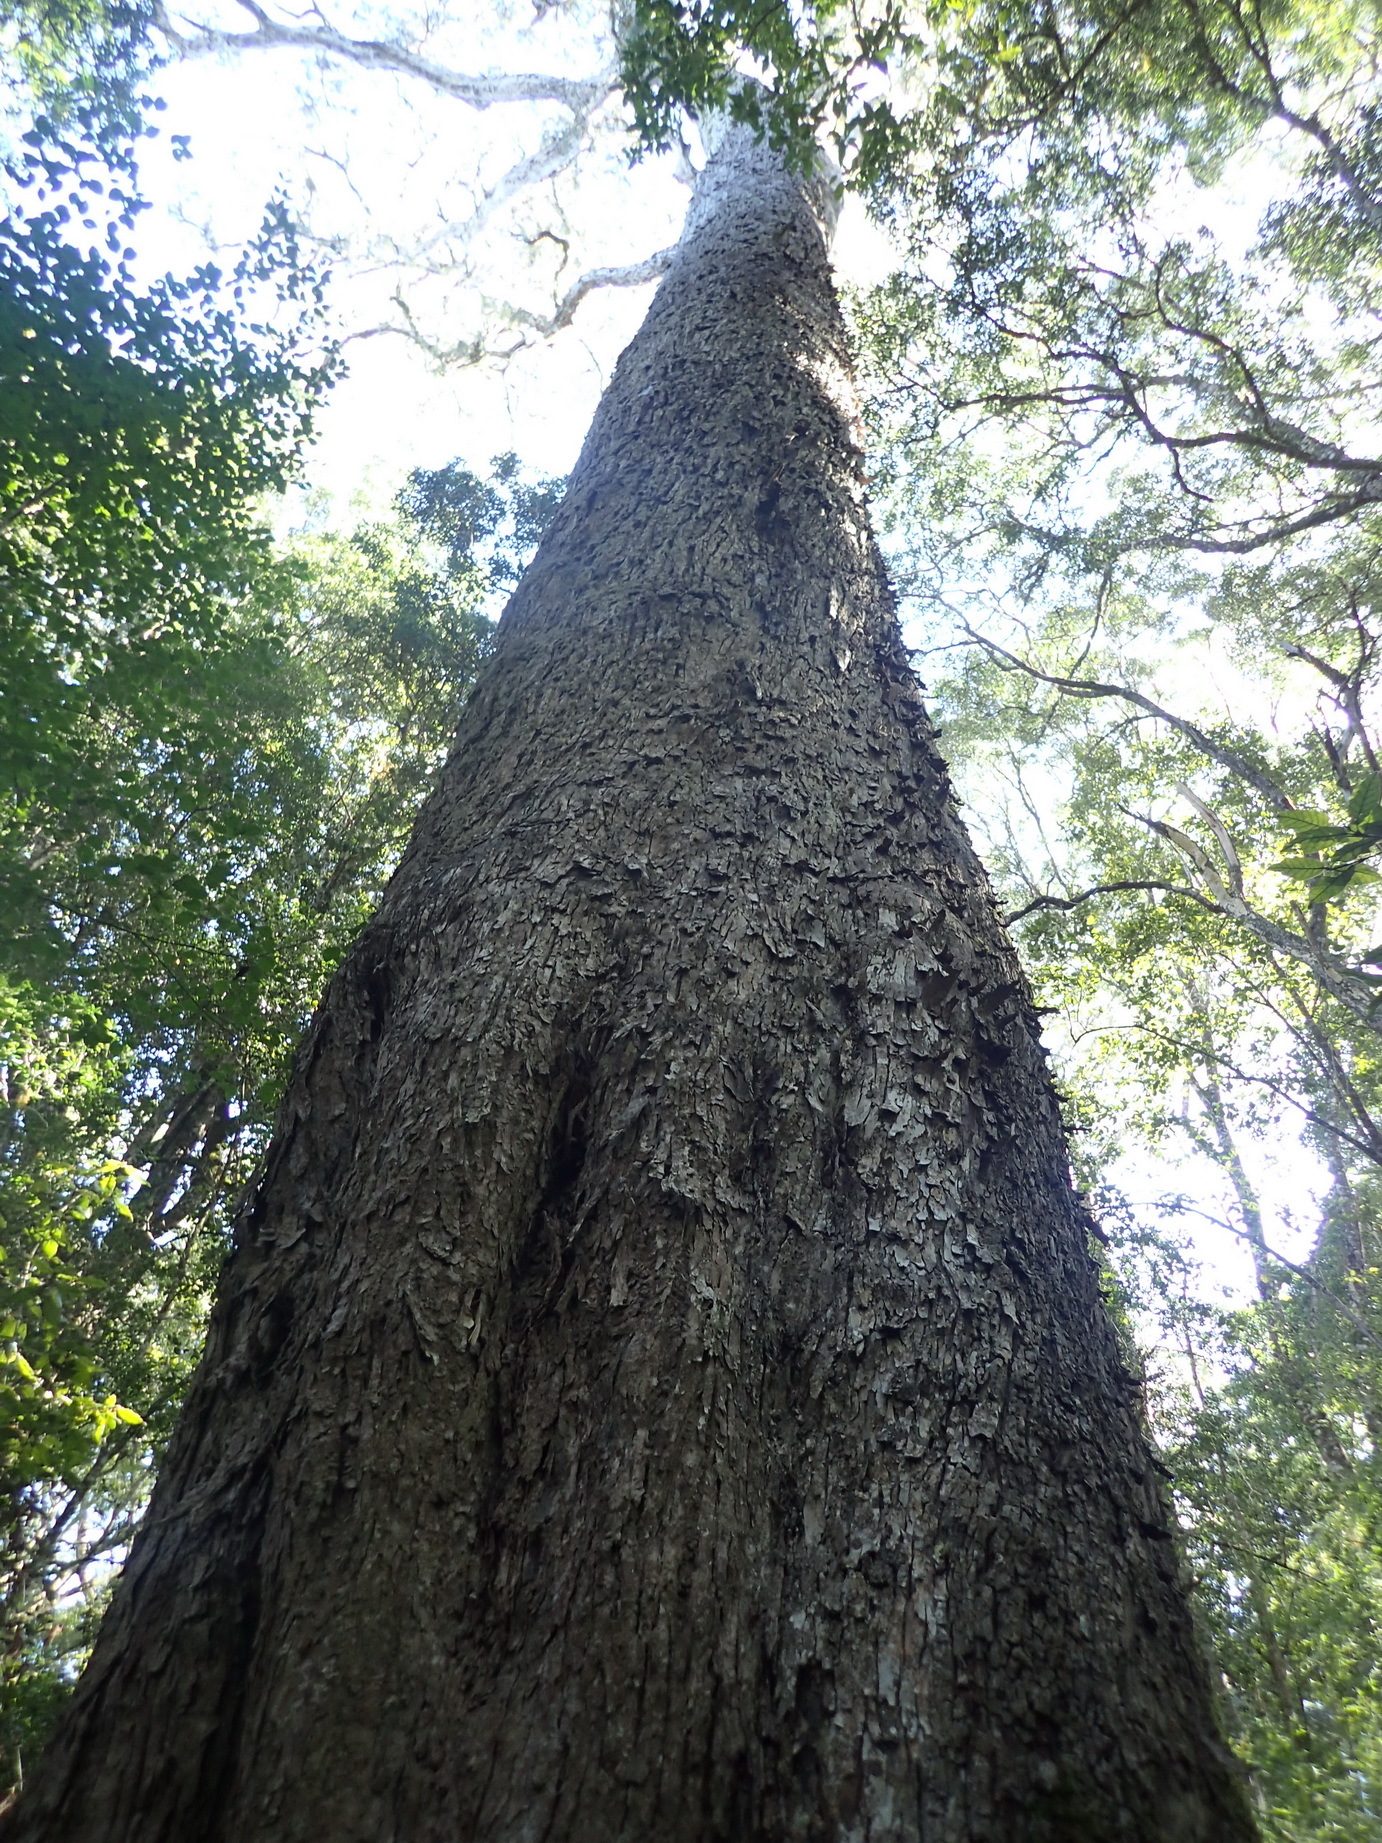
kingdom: Plantae
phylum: Tracheophyta
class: Pinopsida
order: Pinales
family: Podocarpaceae
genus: Afrocarpus
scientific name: Afrocarpus falcatus
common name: Bastard yellowwood
